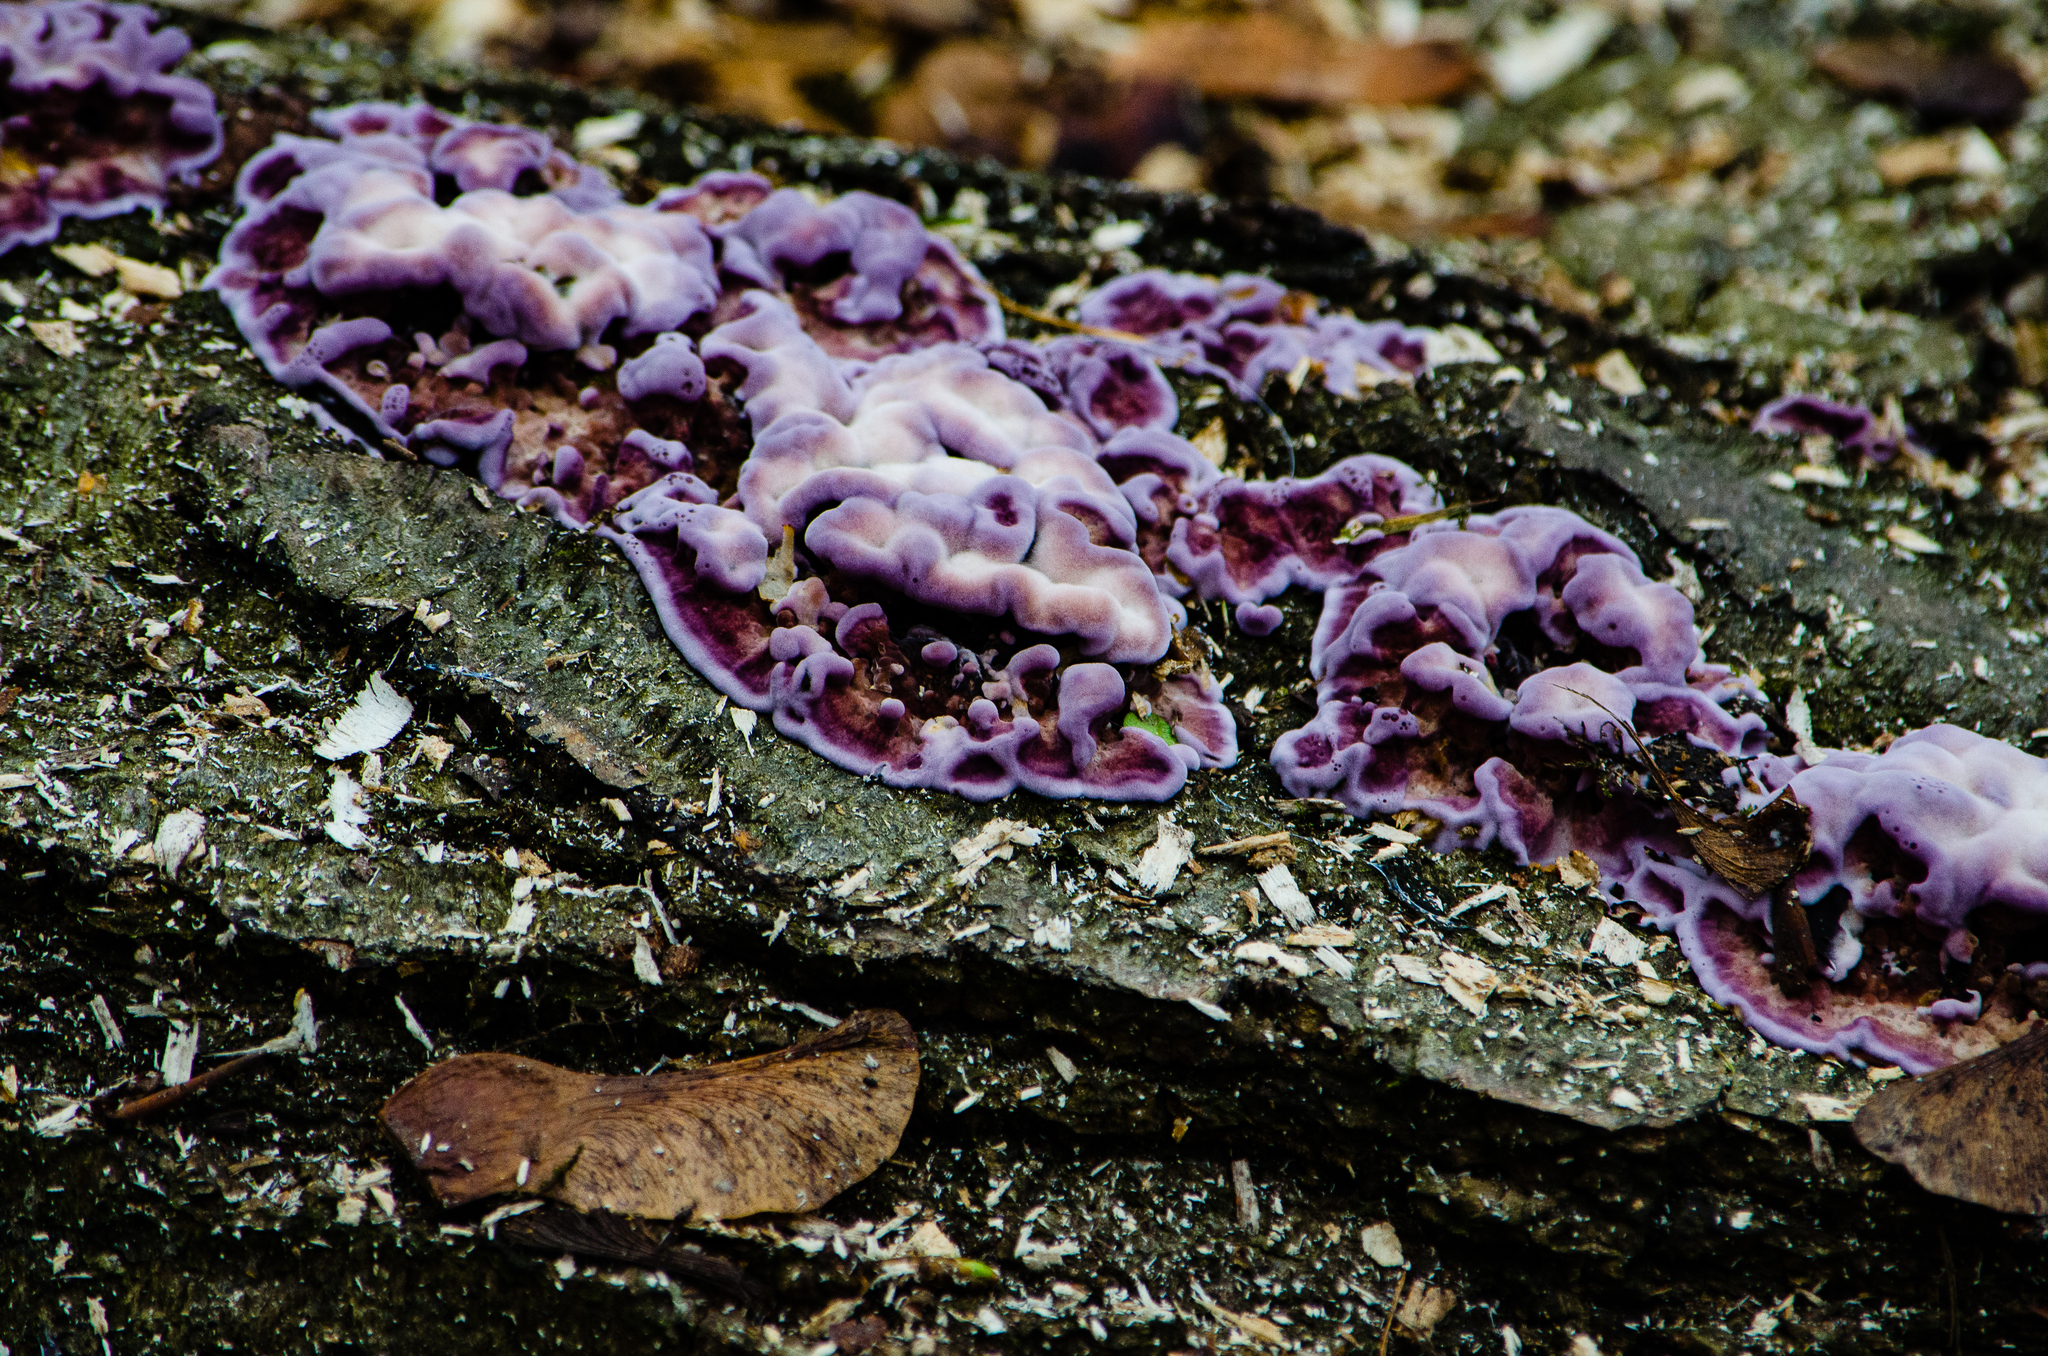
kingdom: Fungi
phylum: Basidiomycota
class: Agaricomycetes
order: Agaricales
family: Cyphellaceae
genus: Chondrostereum
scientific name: Chondrostereum purpureum
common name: Silver leaf disease
